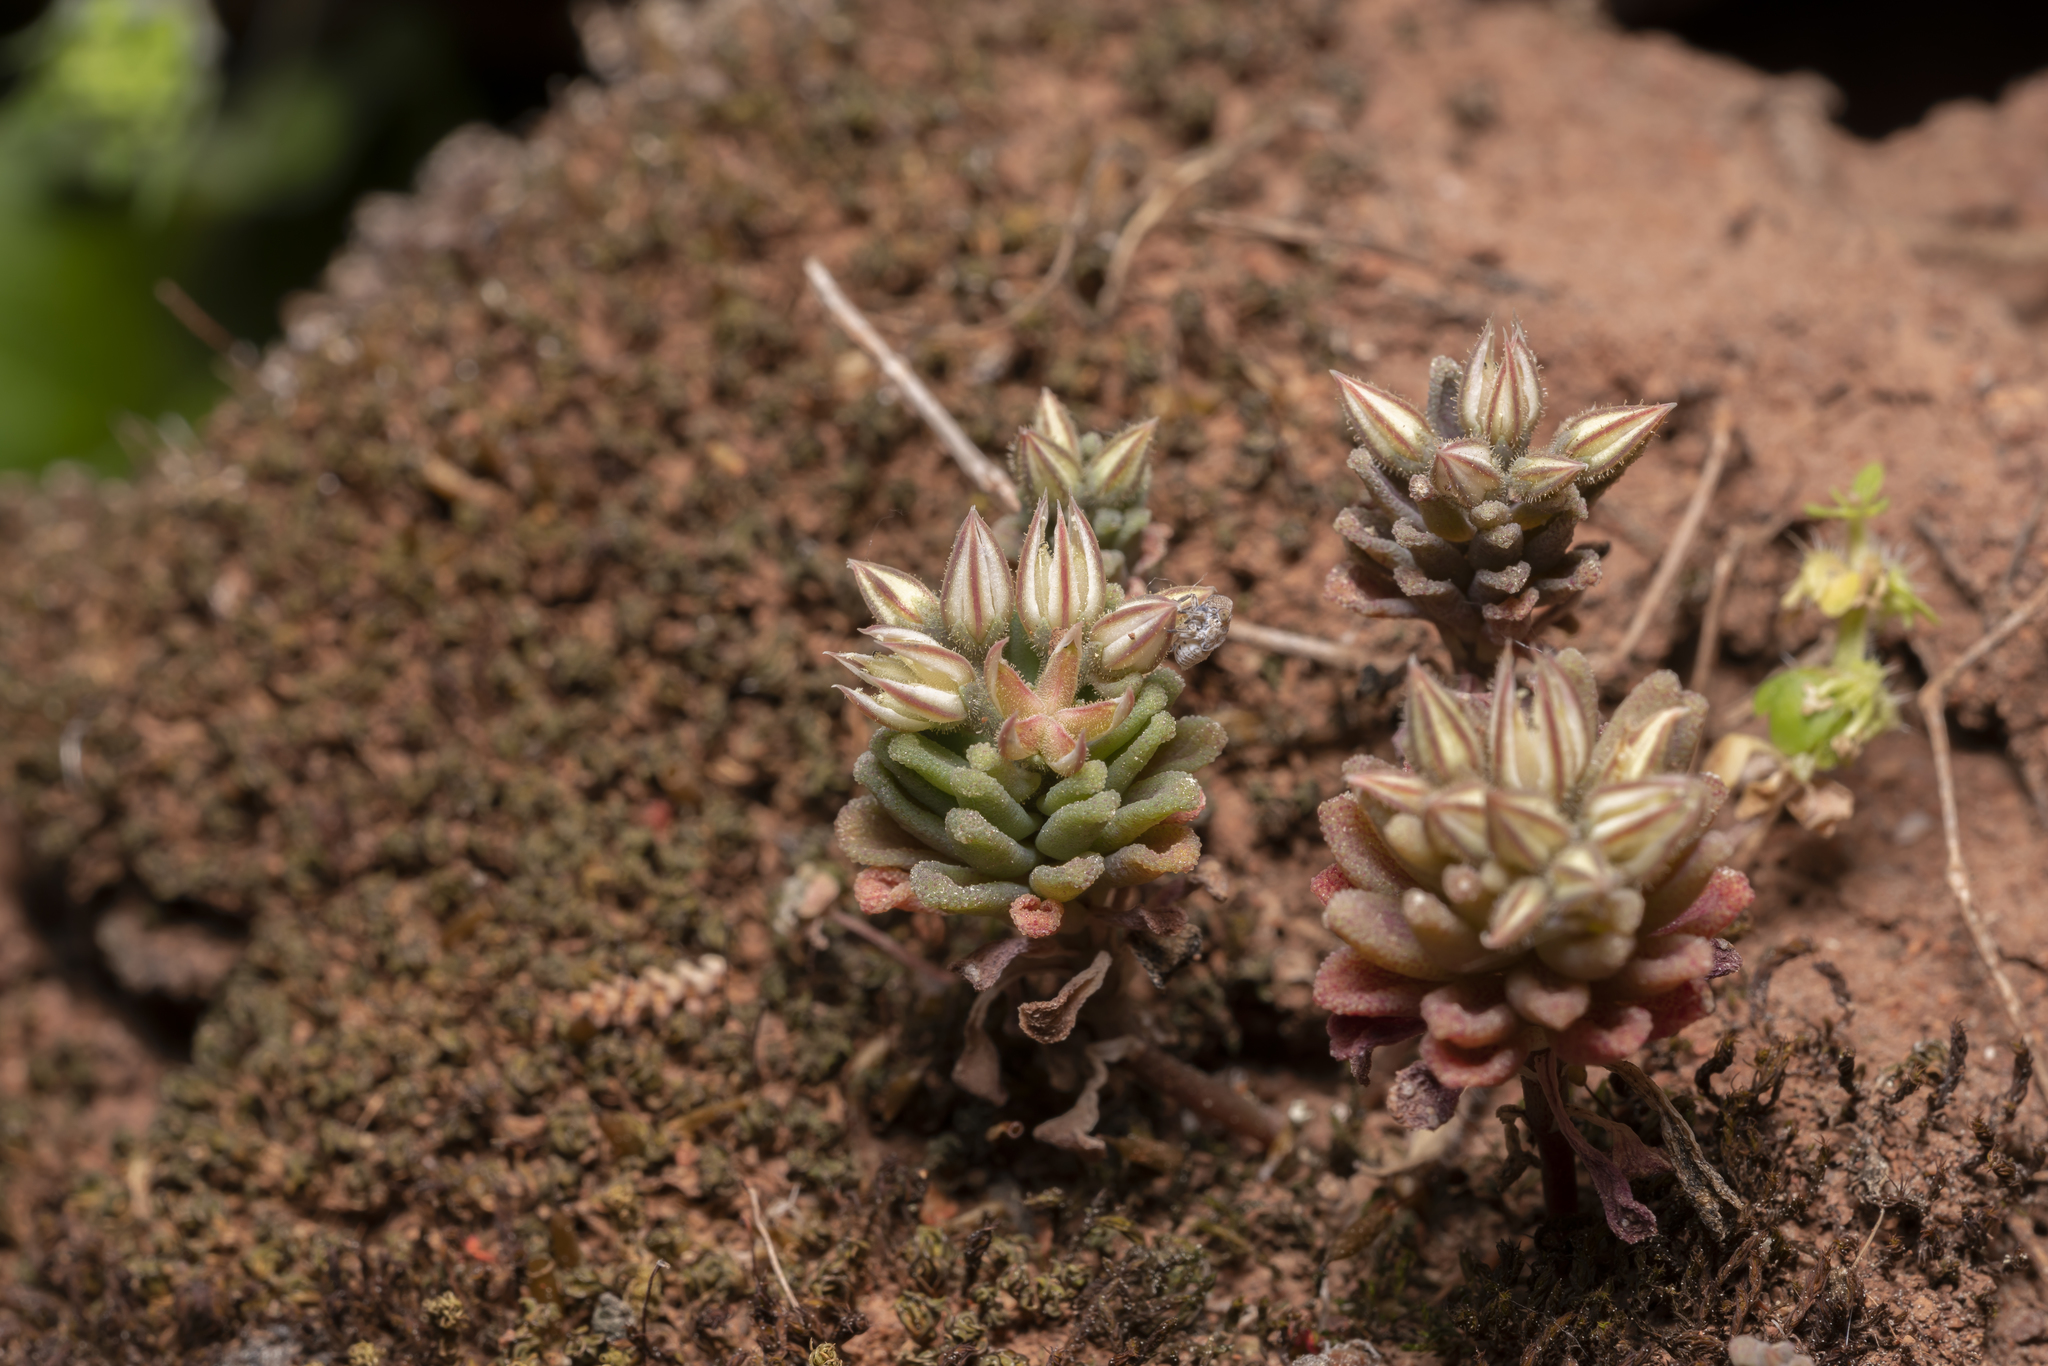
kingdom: Plantae
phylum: Tracheophyta
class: Magnoliopsida
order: Saxifragales
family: Crassulaceae
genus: Sedum
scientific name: Sedum rubens
